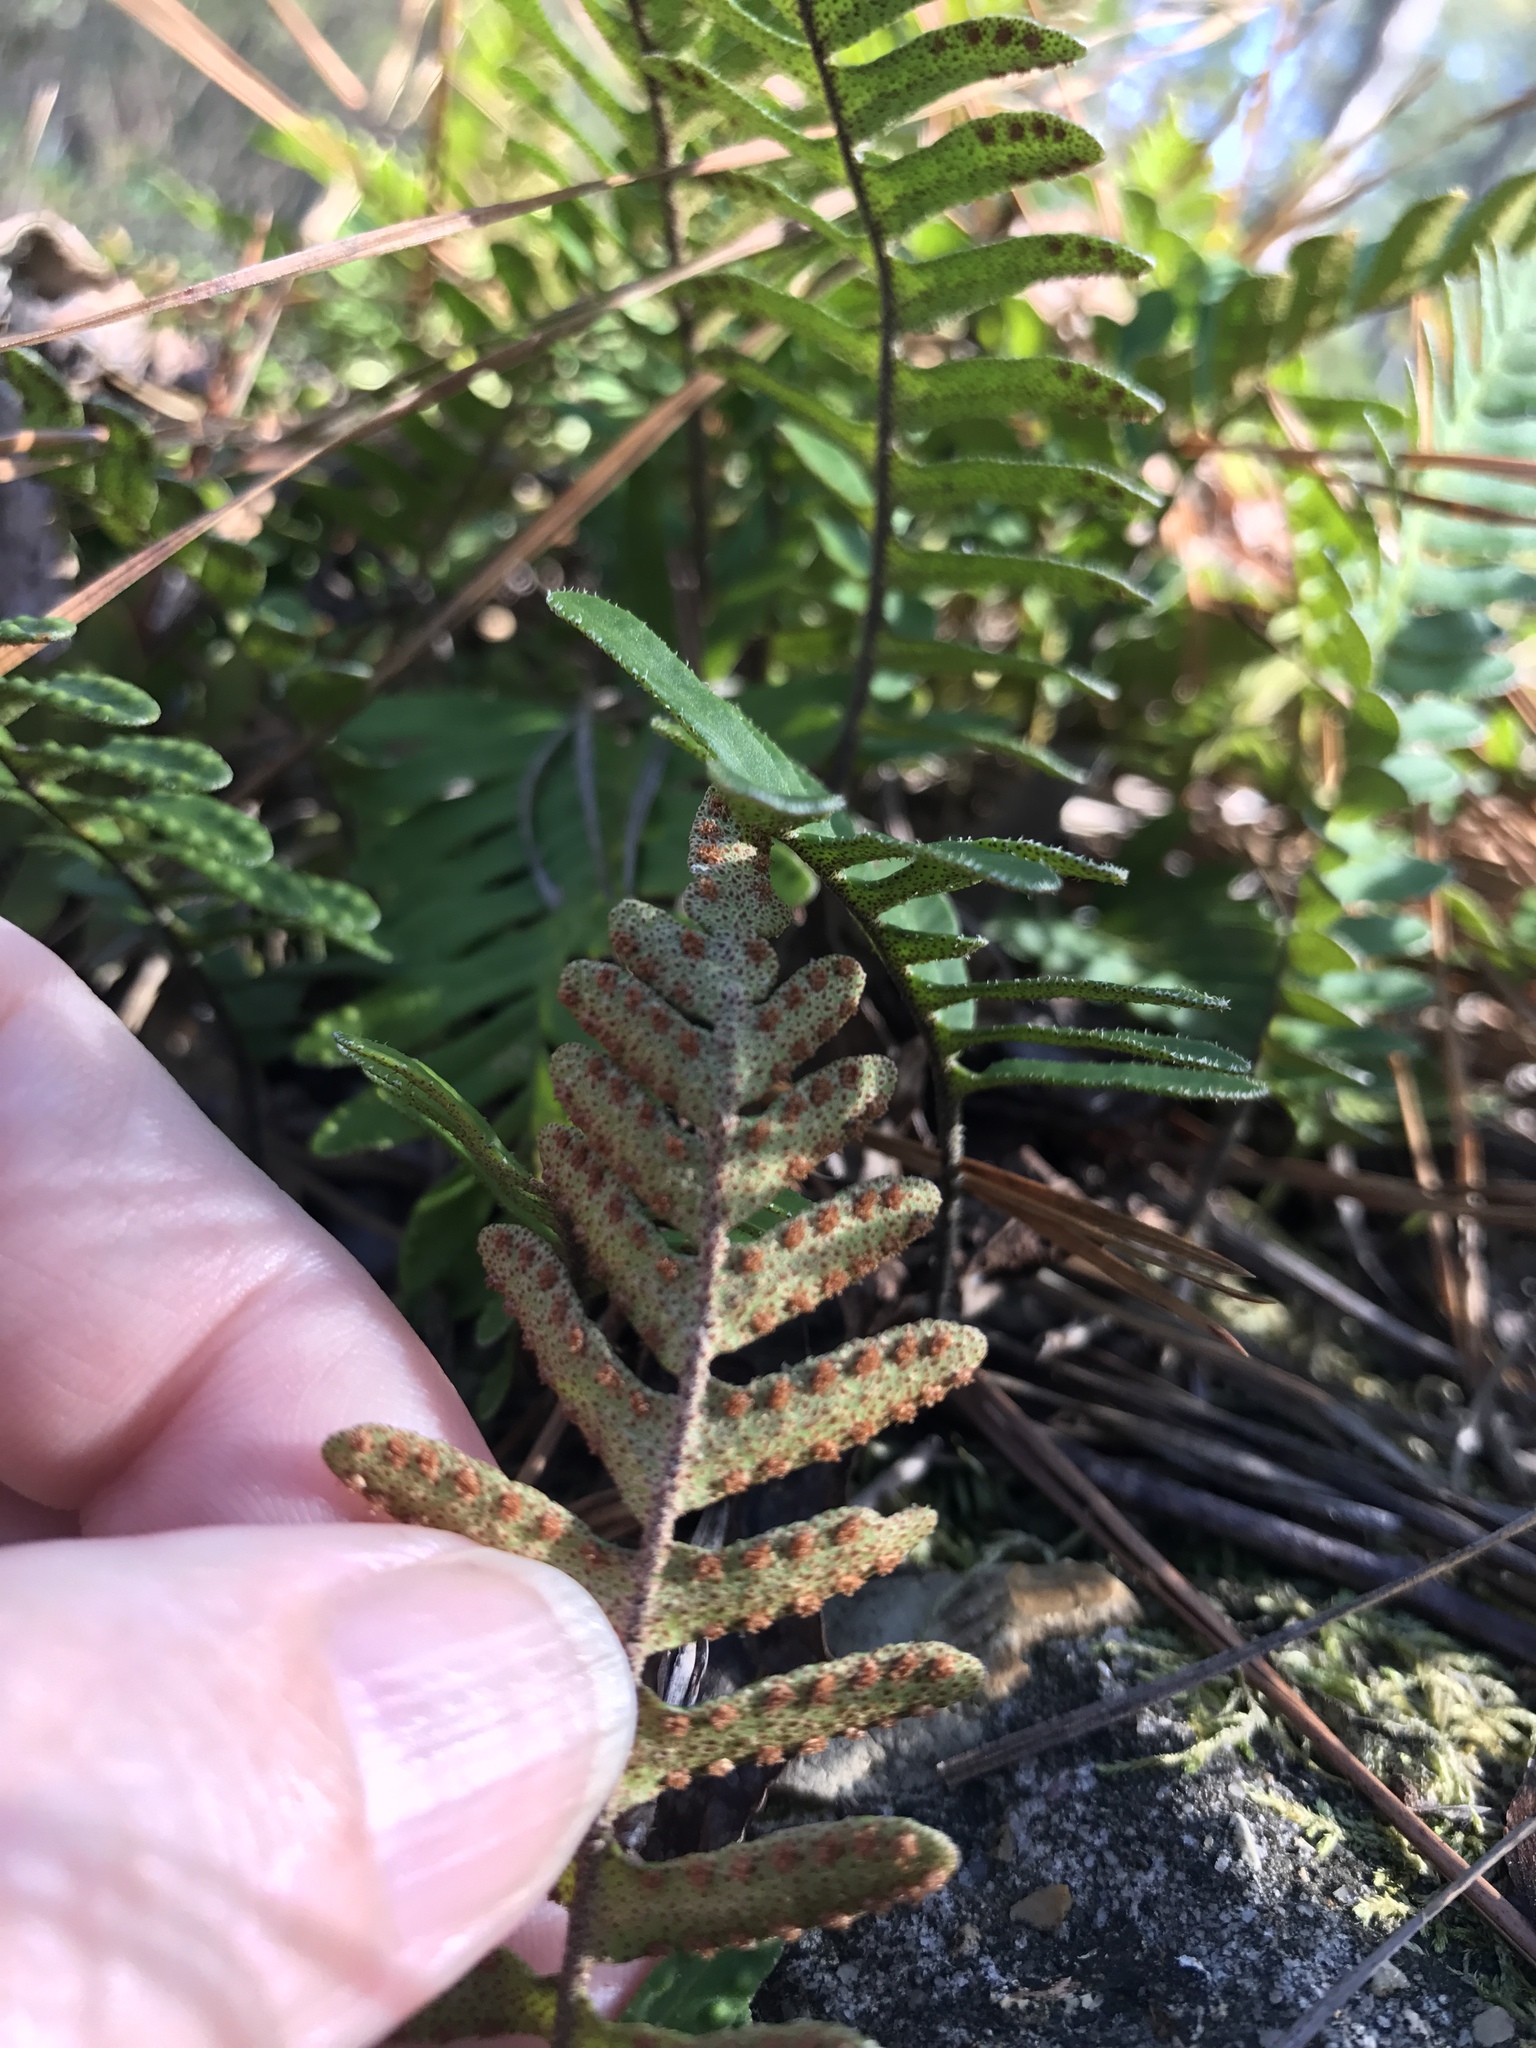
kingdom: Plantae
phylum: Tracheophyta
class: Polypodiopsida
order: Polypodiales
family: Polypodiaceae
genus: Pleopeltis
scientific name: Pleopeltis michauxiana
